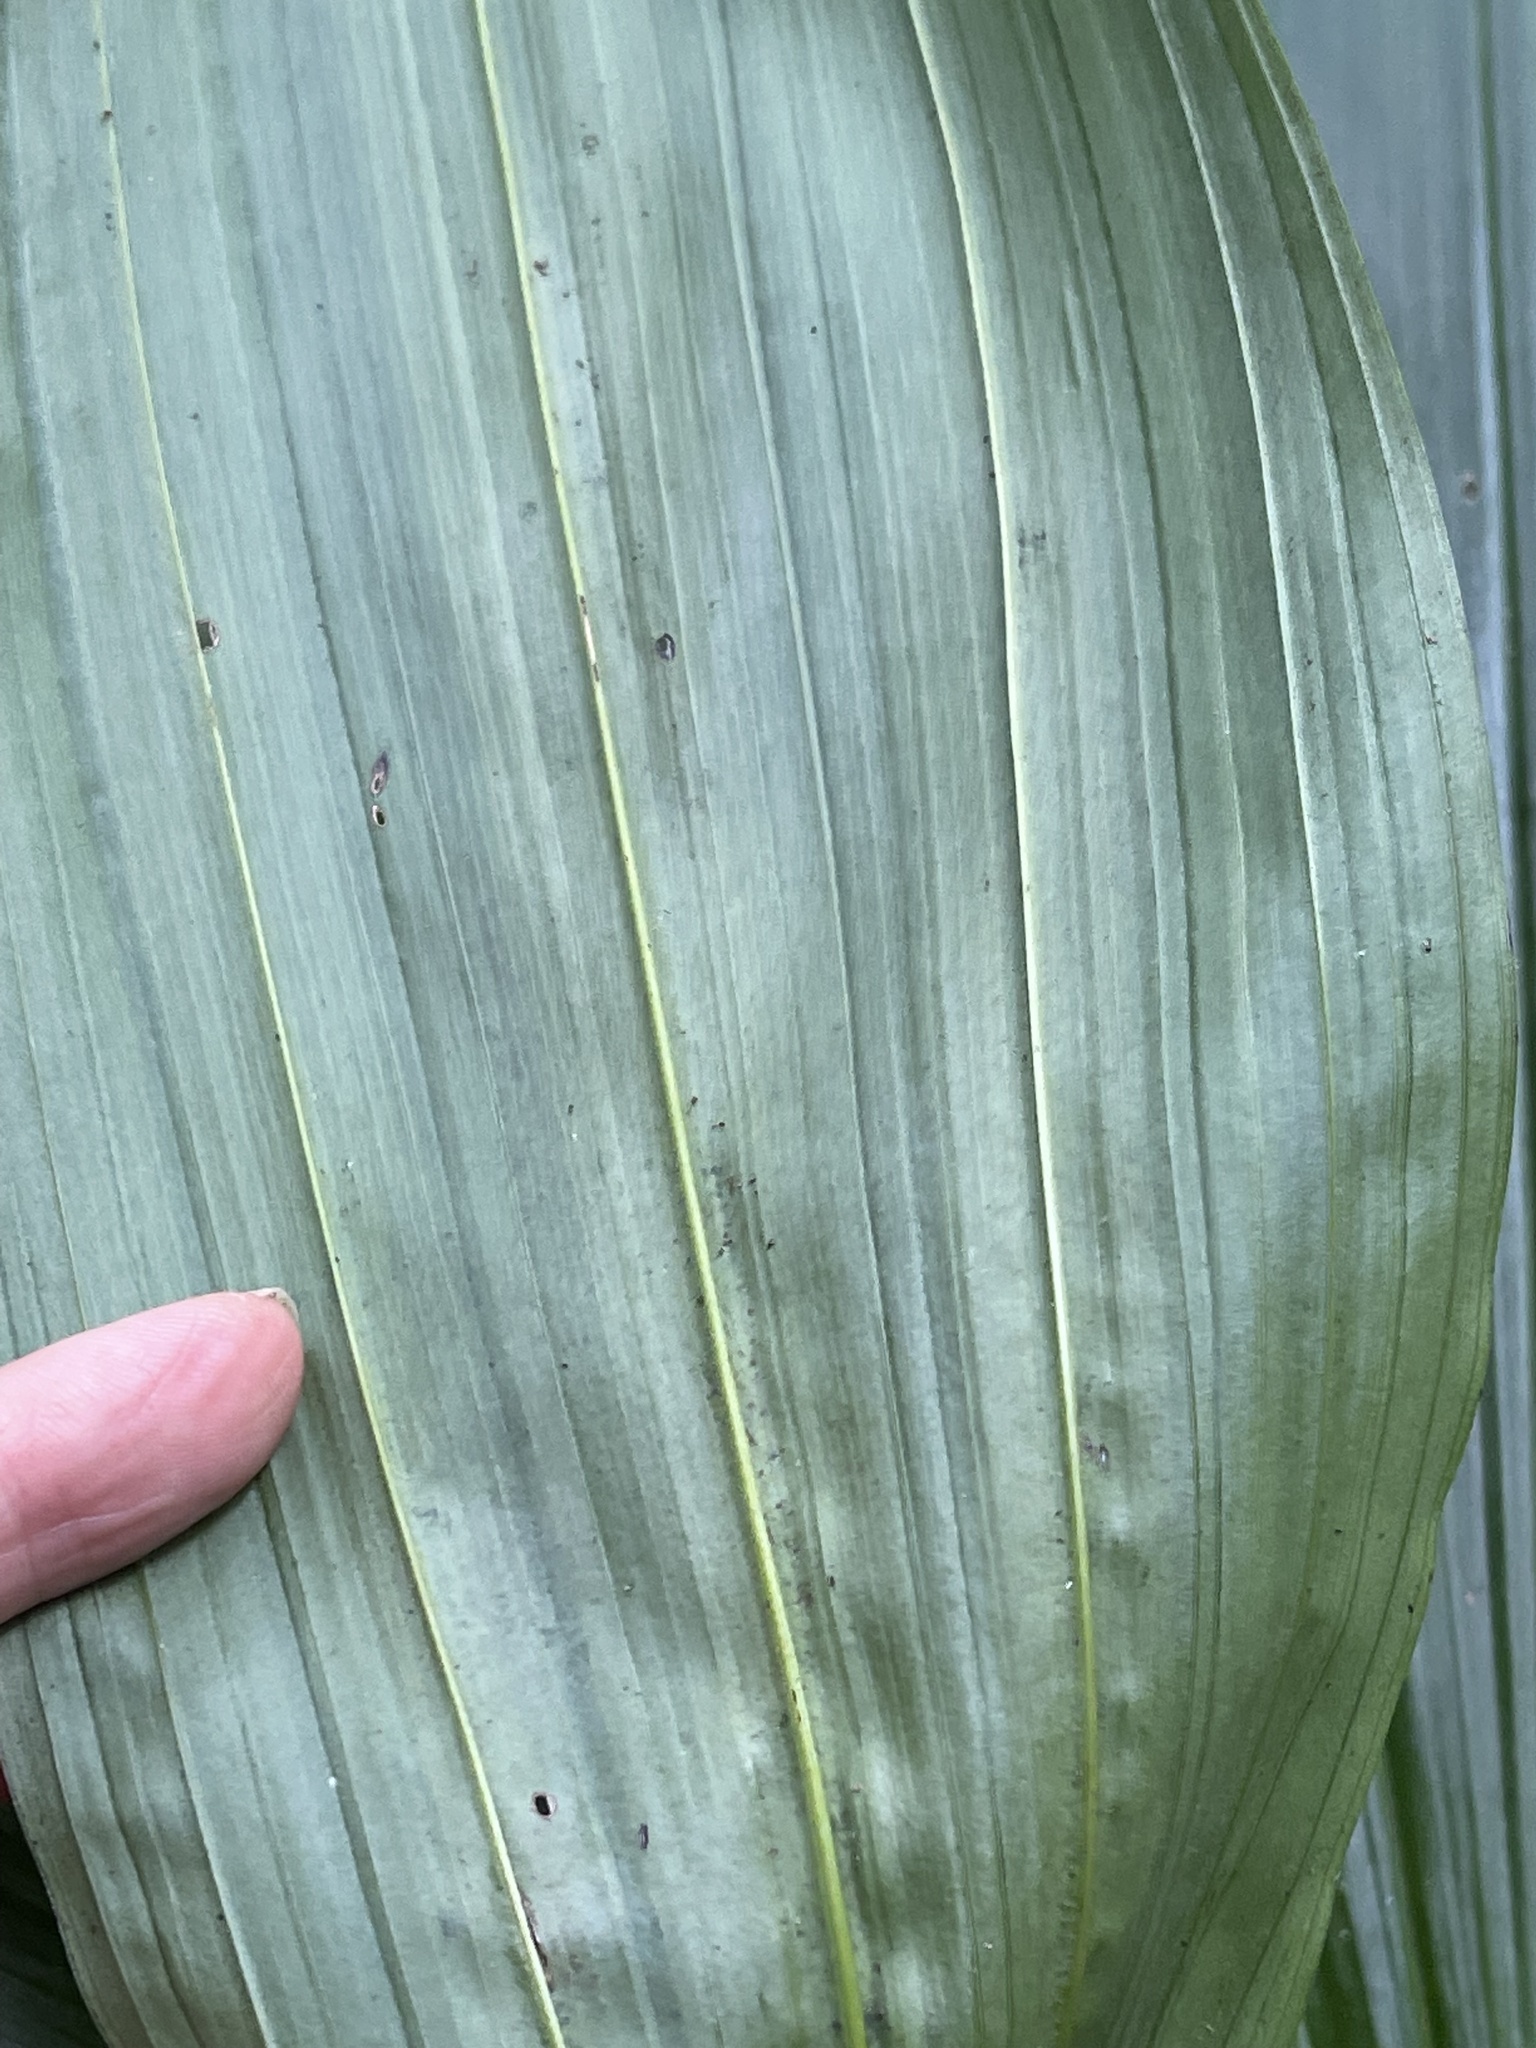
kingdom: Plantae
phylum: Tracheophyta
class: Liliopsida
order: Asparagales
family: Orchidaceae
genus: Calanthe
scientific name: Calanthe tankervilleae
